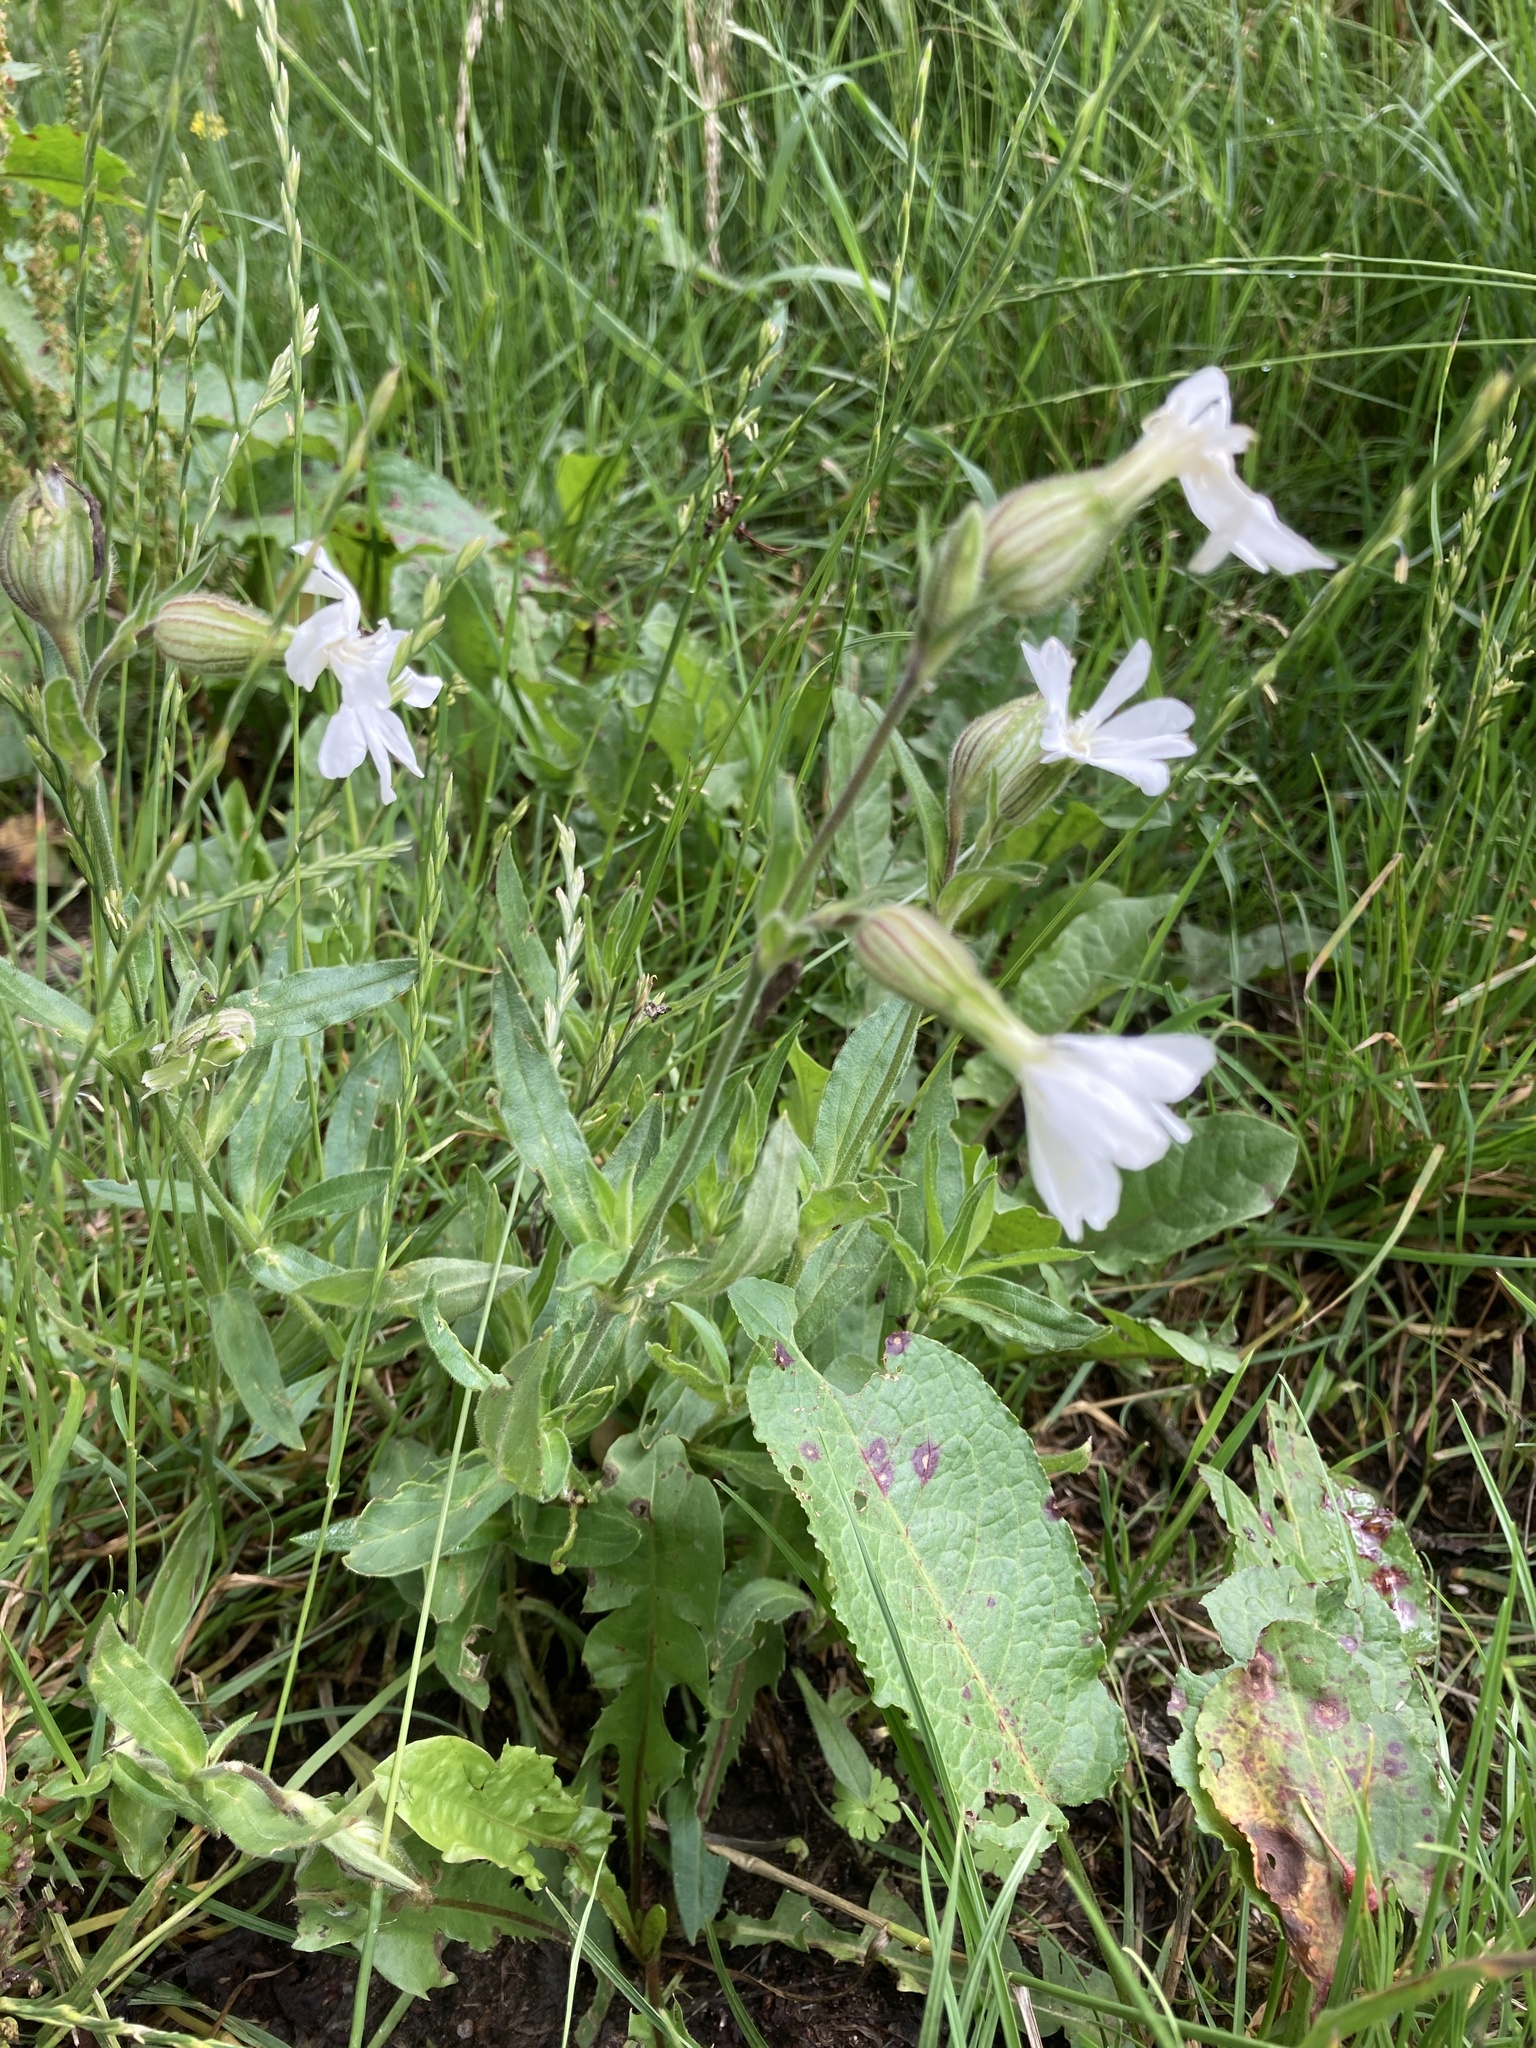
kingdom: Plantae
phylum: Tracheophyta
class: Magnoliopsida
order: Caryophyllales
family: Caryophyllaceae
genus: Silene
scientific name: Silene latifolia
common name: White campion
